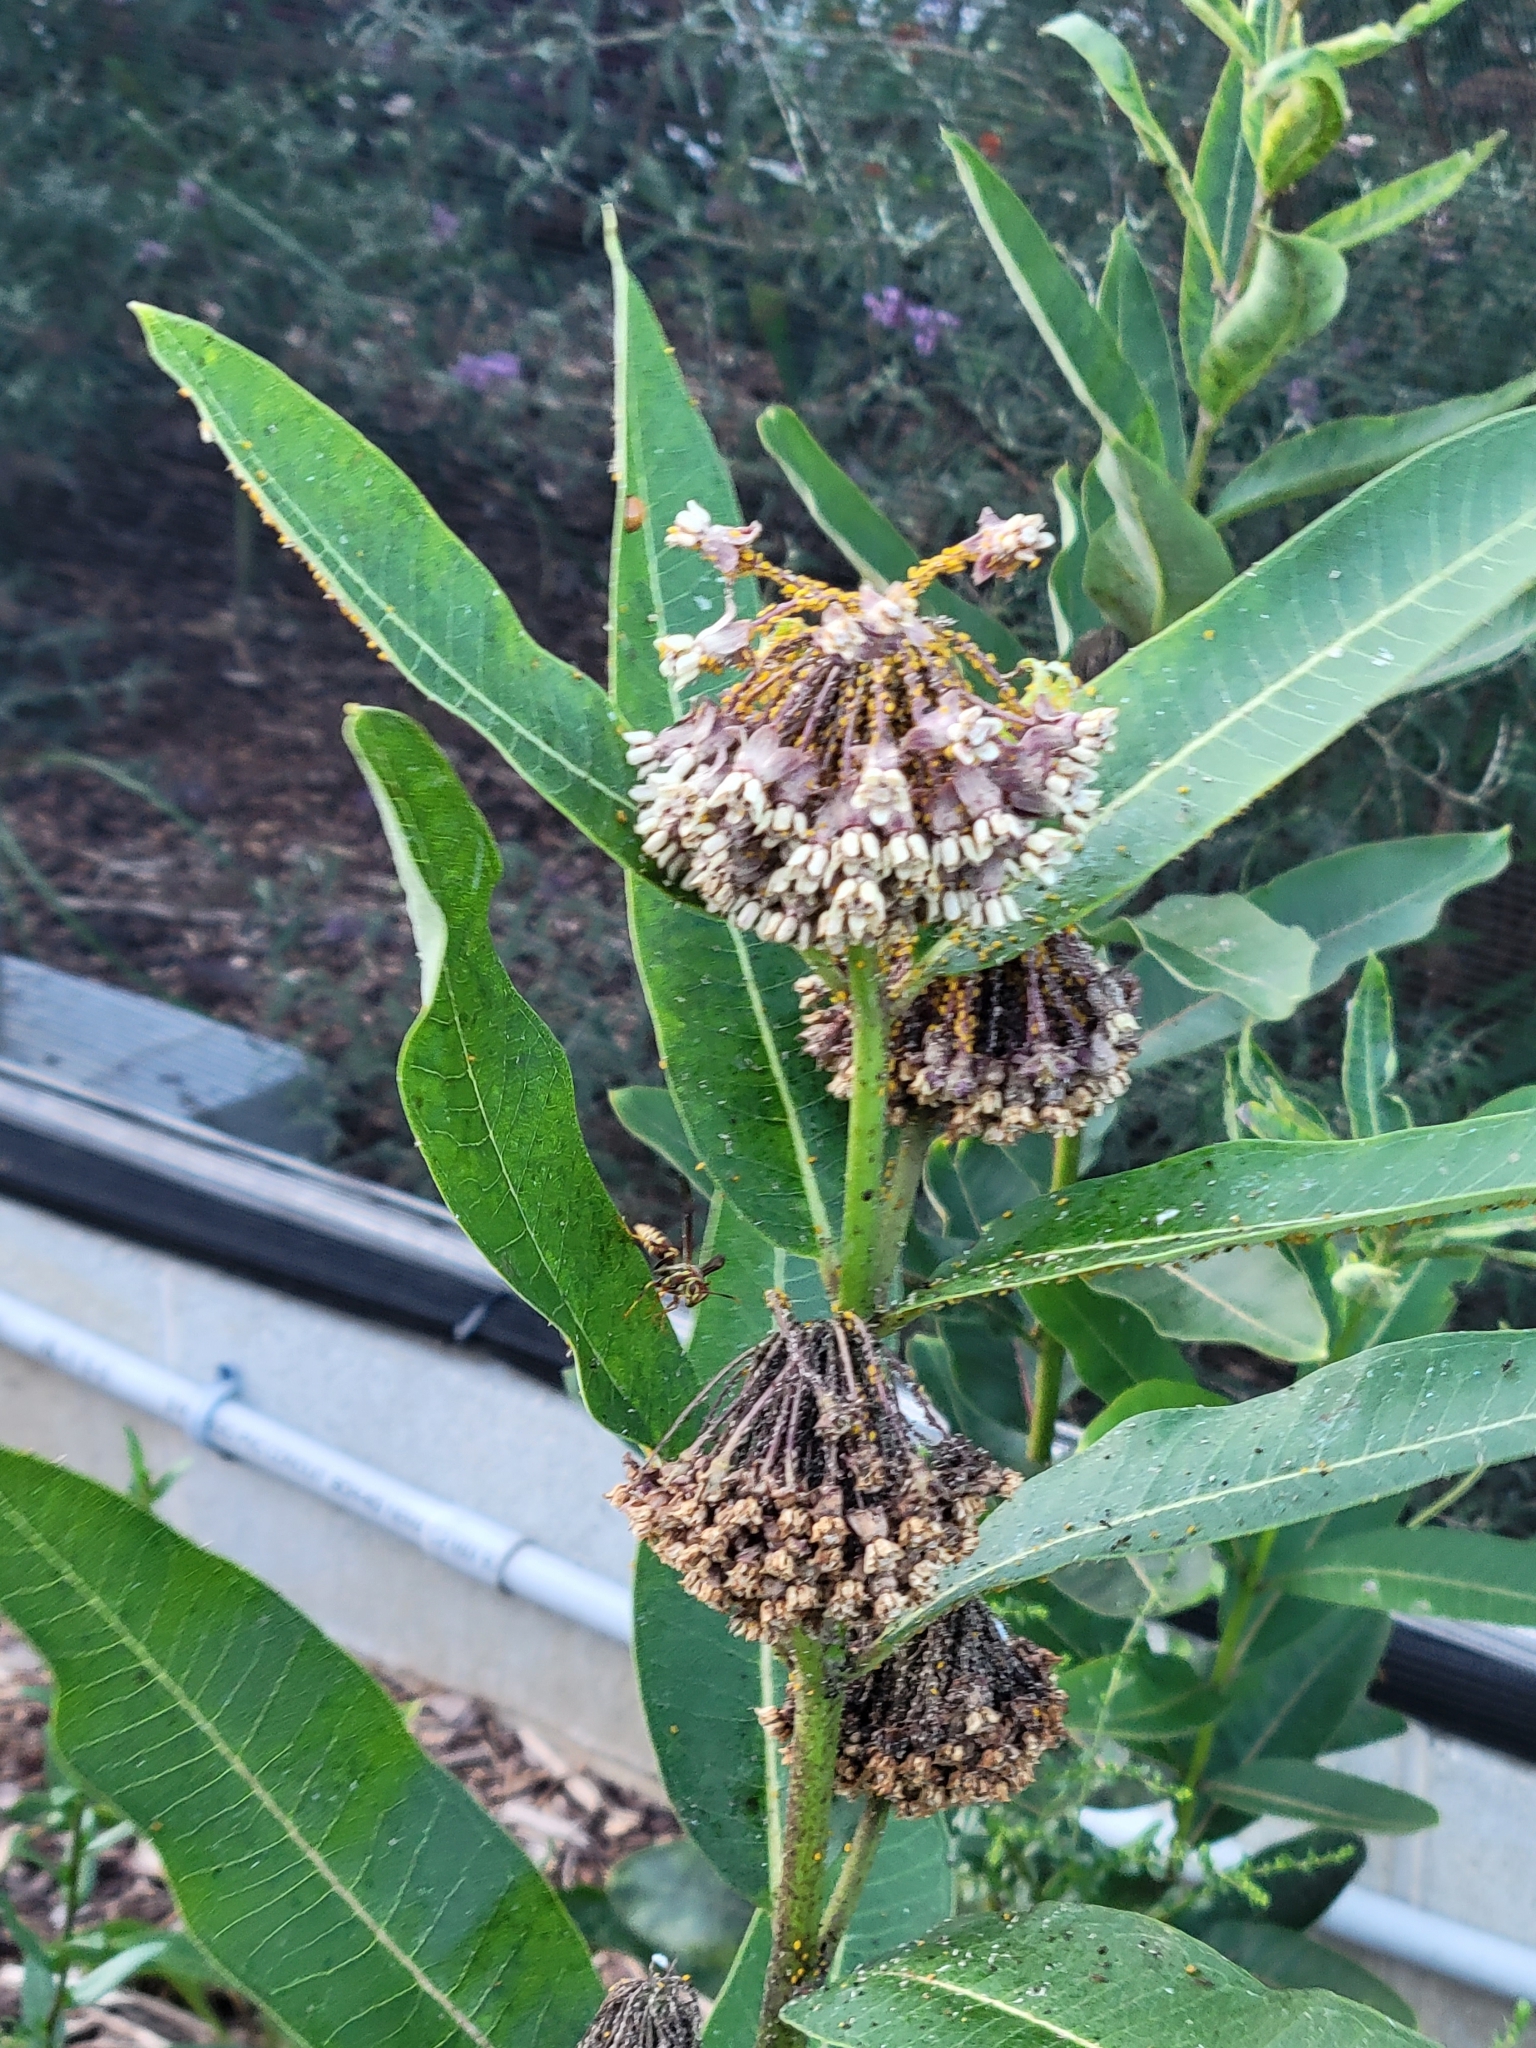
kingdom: Plantae
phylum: Tracheophyta
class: Magnoliopsida
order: Gentianales
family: Apocynaceae
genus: Asclepias
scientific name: Asclepias syriaca
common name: Common milkweed
